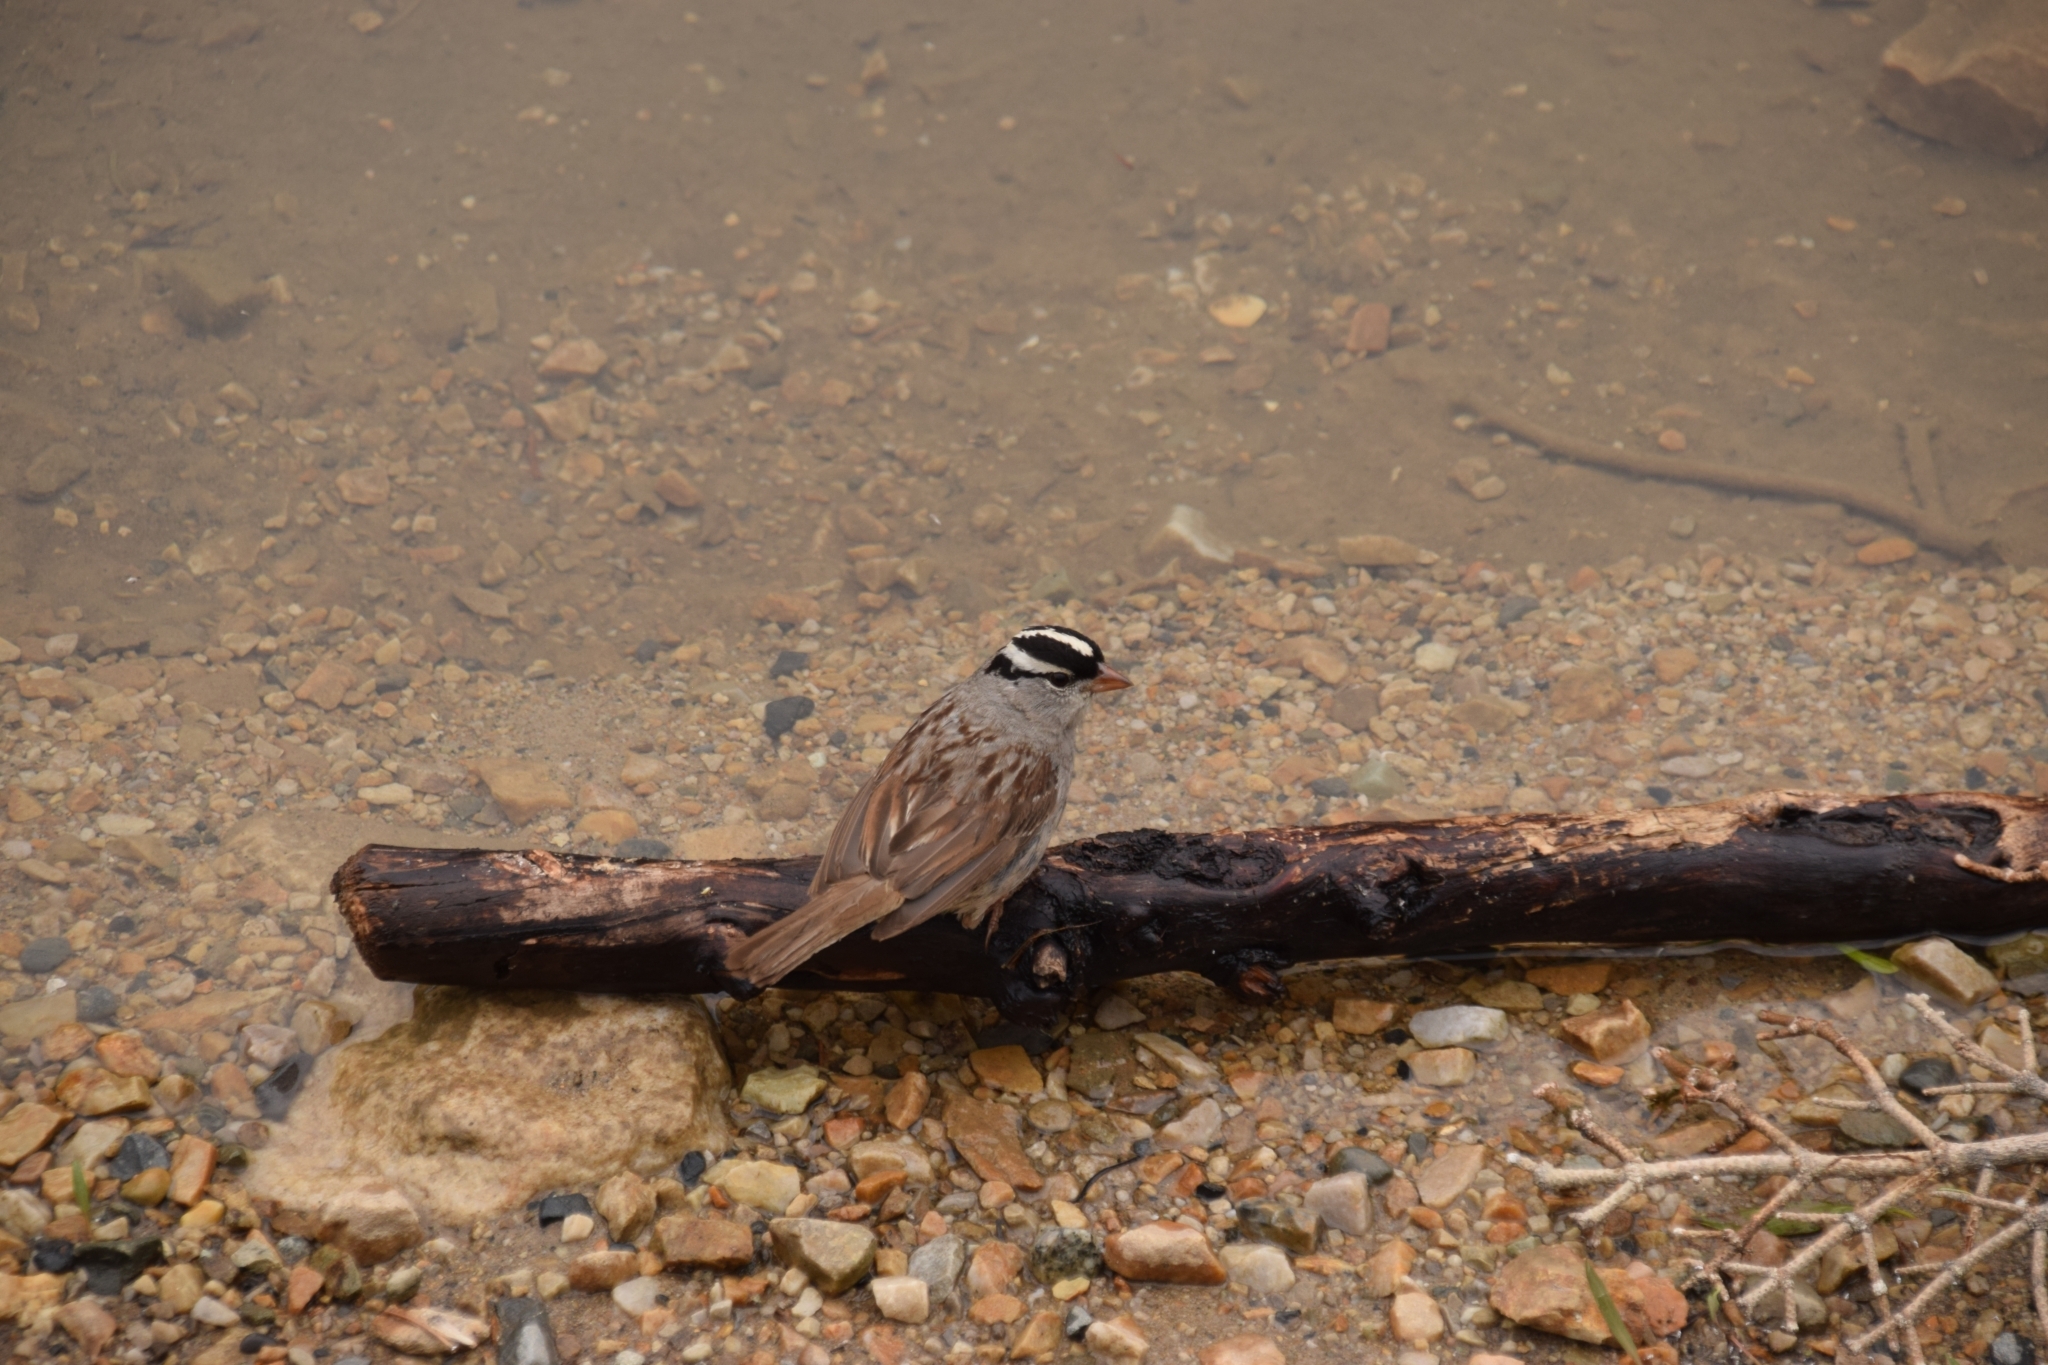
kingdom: Animalia
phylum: Chordata
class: Aves
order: Passeriformes
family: Passerellidae
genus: Zonotrichia
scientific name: Zonotrichia leucophrys
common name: White-crowned sparrow
